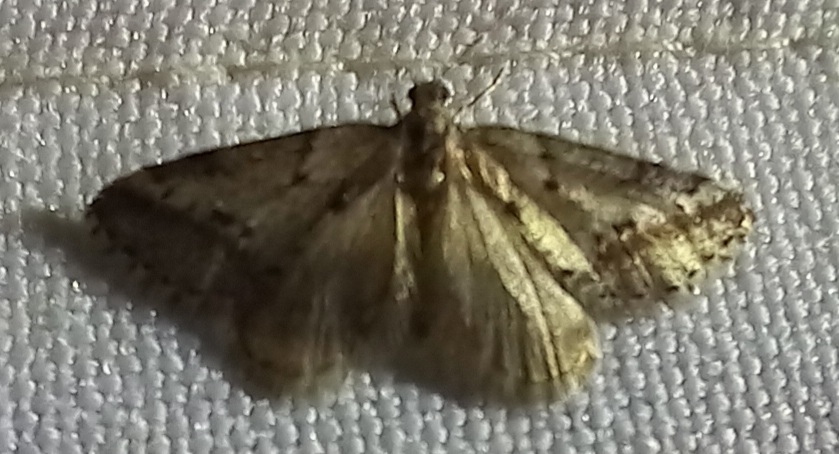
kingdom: Animalia
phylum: Arthropoda
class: Insecta
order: Lepidoptera
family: Geometridae
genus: Tephronia
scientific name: Tephronia oranaria
